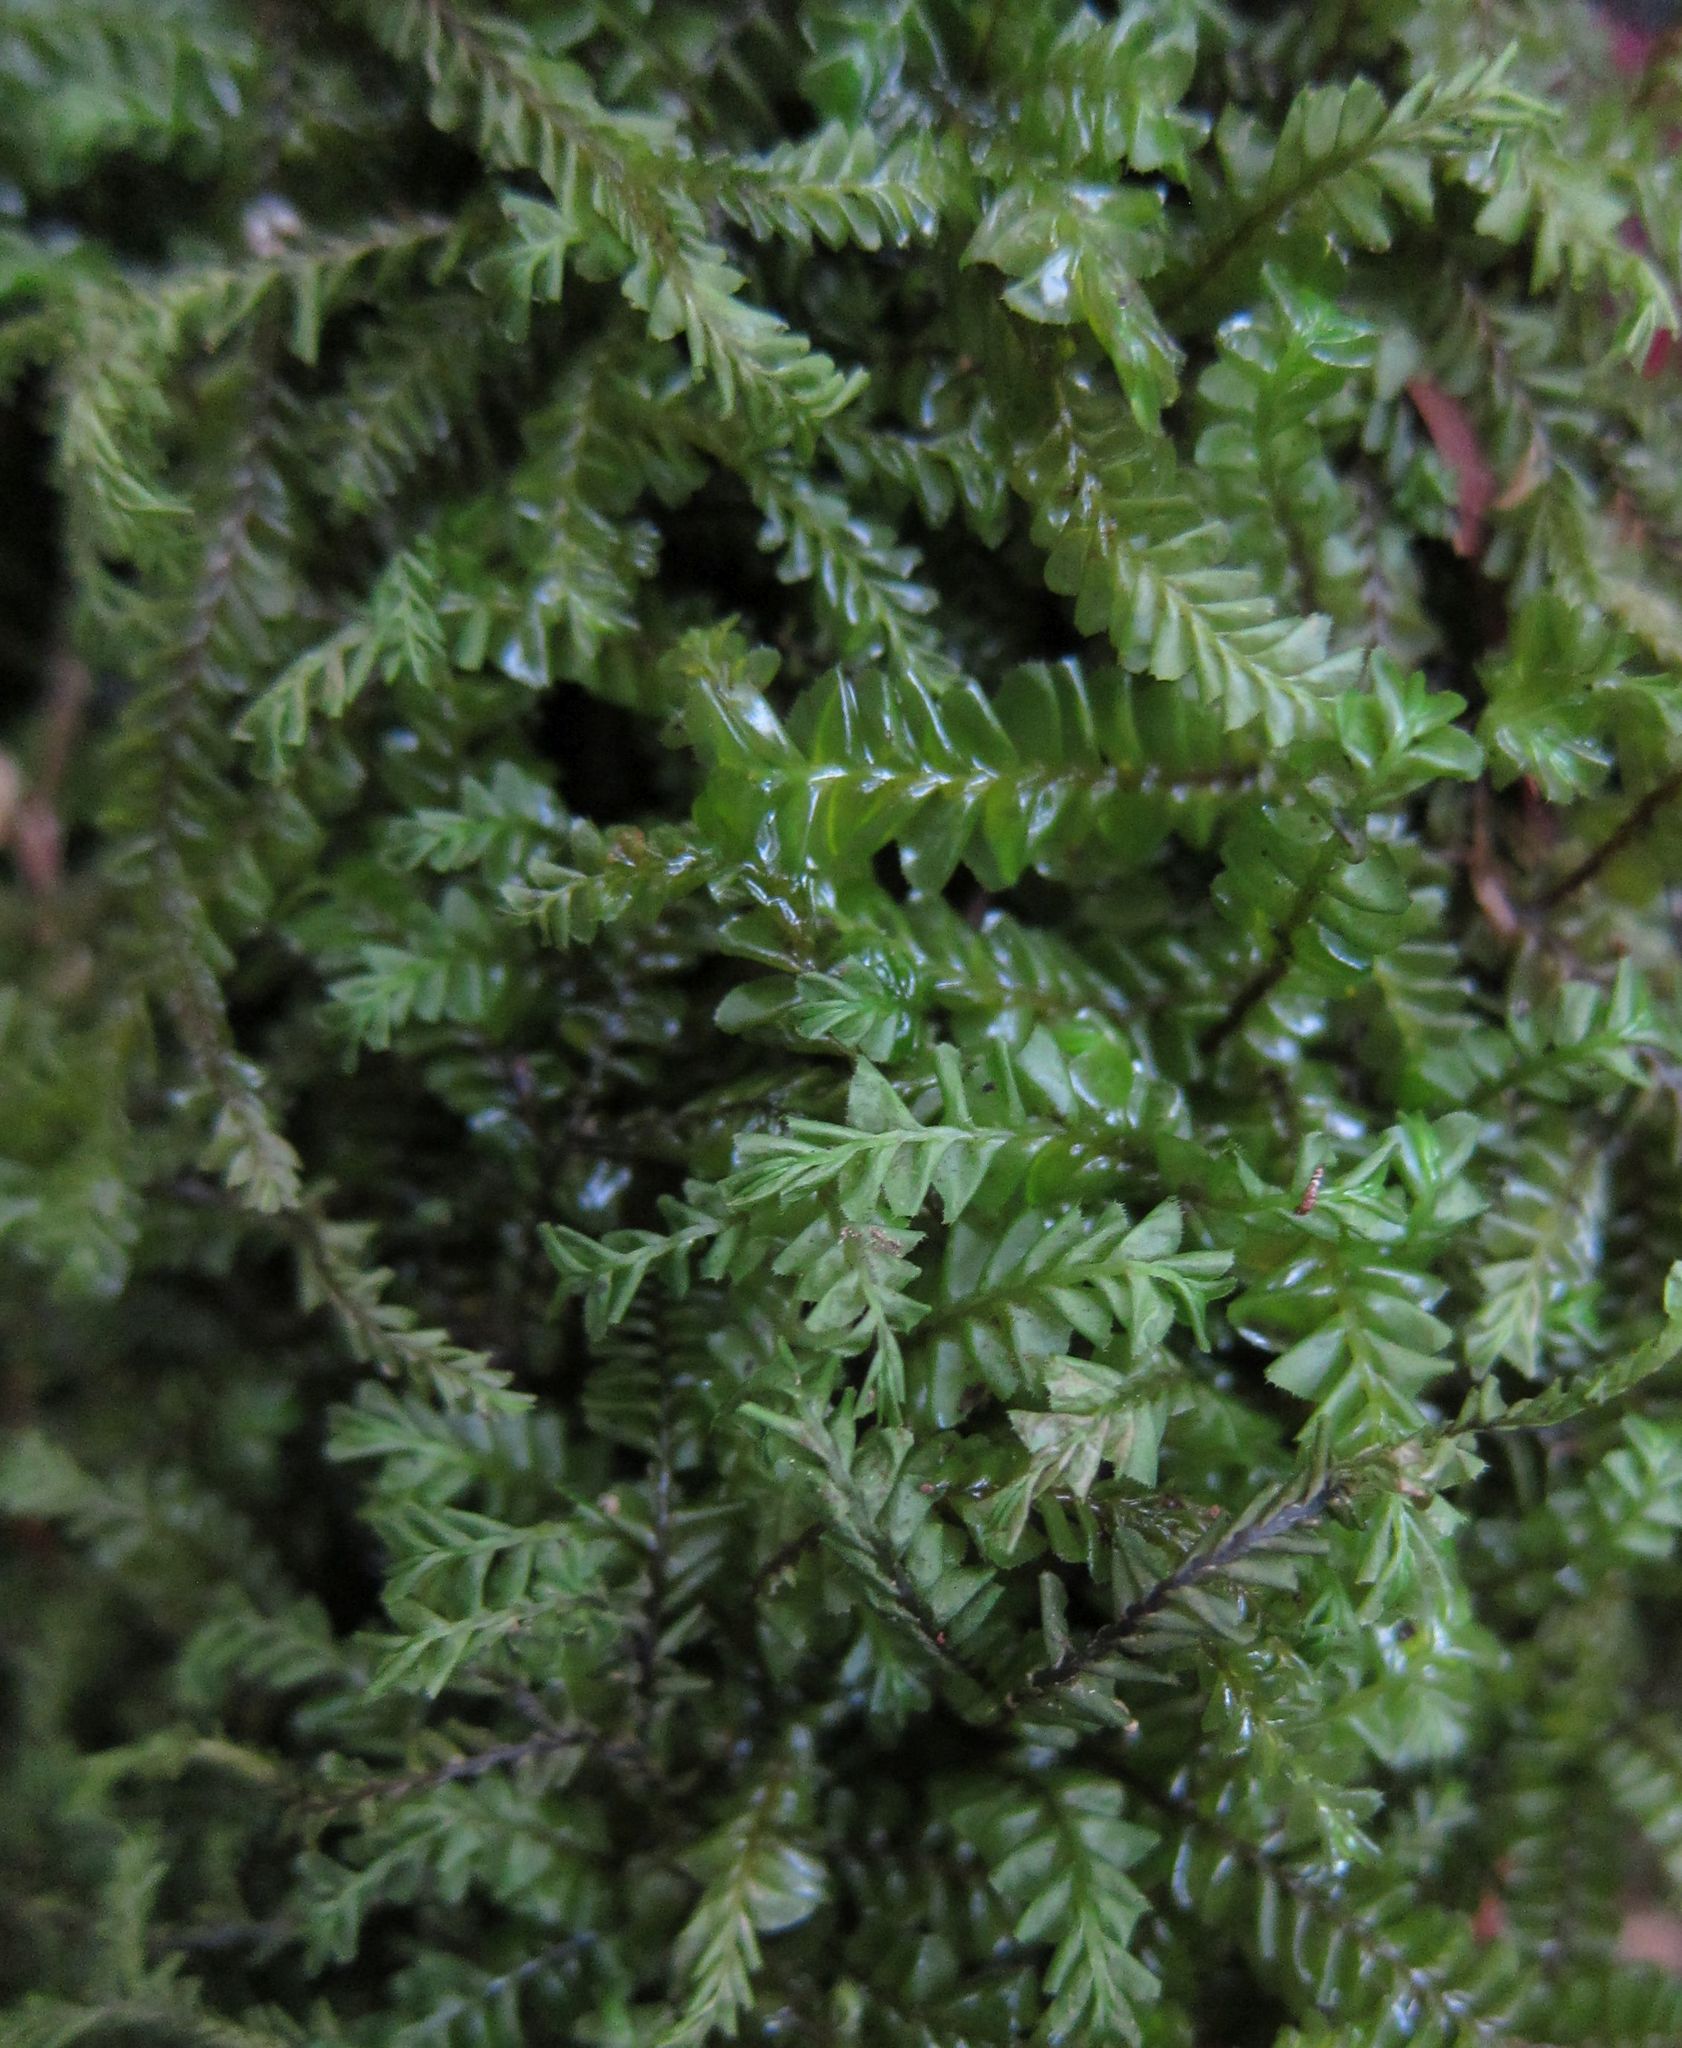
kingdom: Plantae
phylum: Marchantiophyta
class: Jungermanniopsida
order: Jungermanniales
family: Plagiochilaceae
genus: Plagiochila
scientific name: Plagiochila deltoidea
